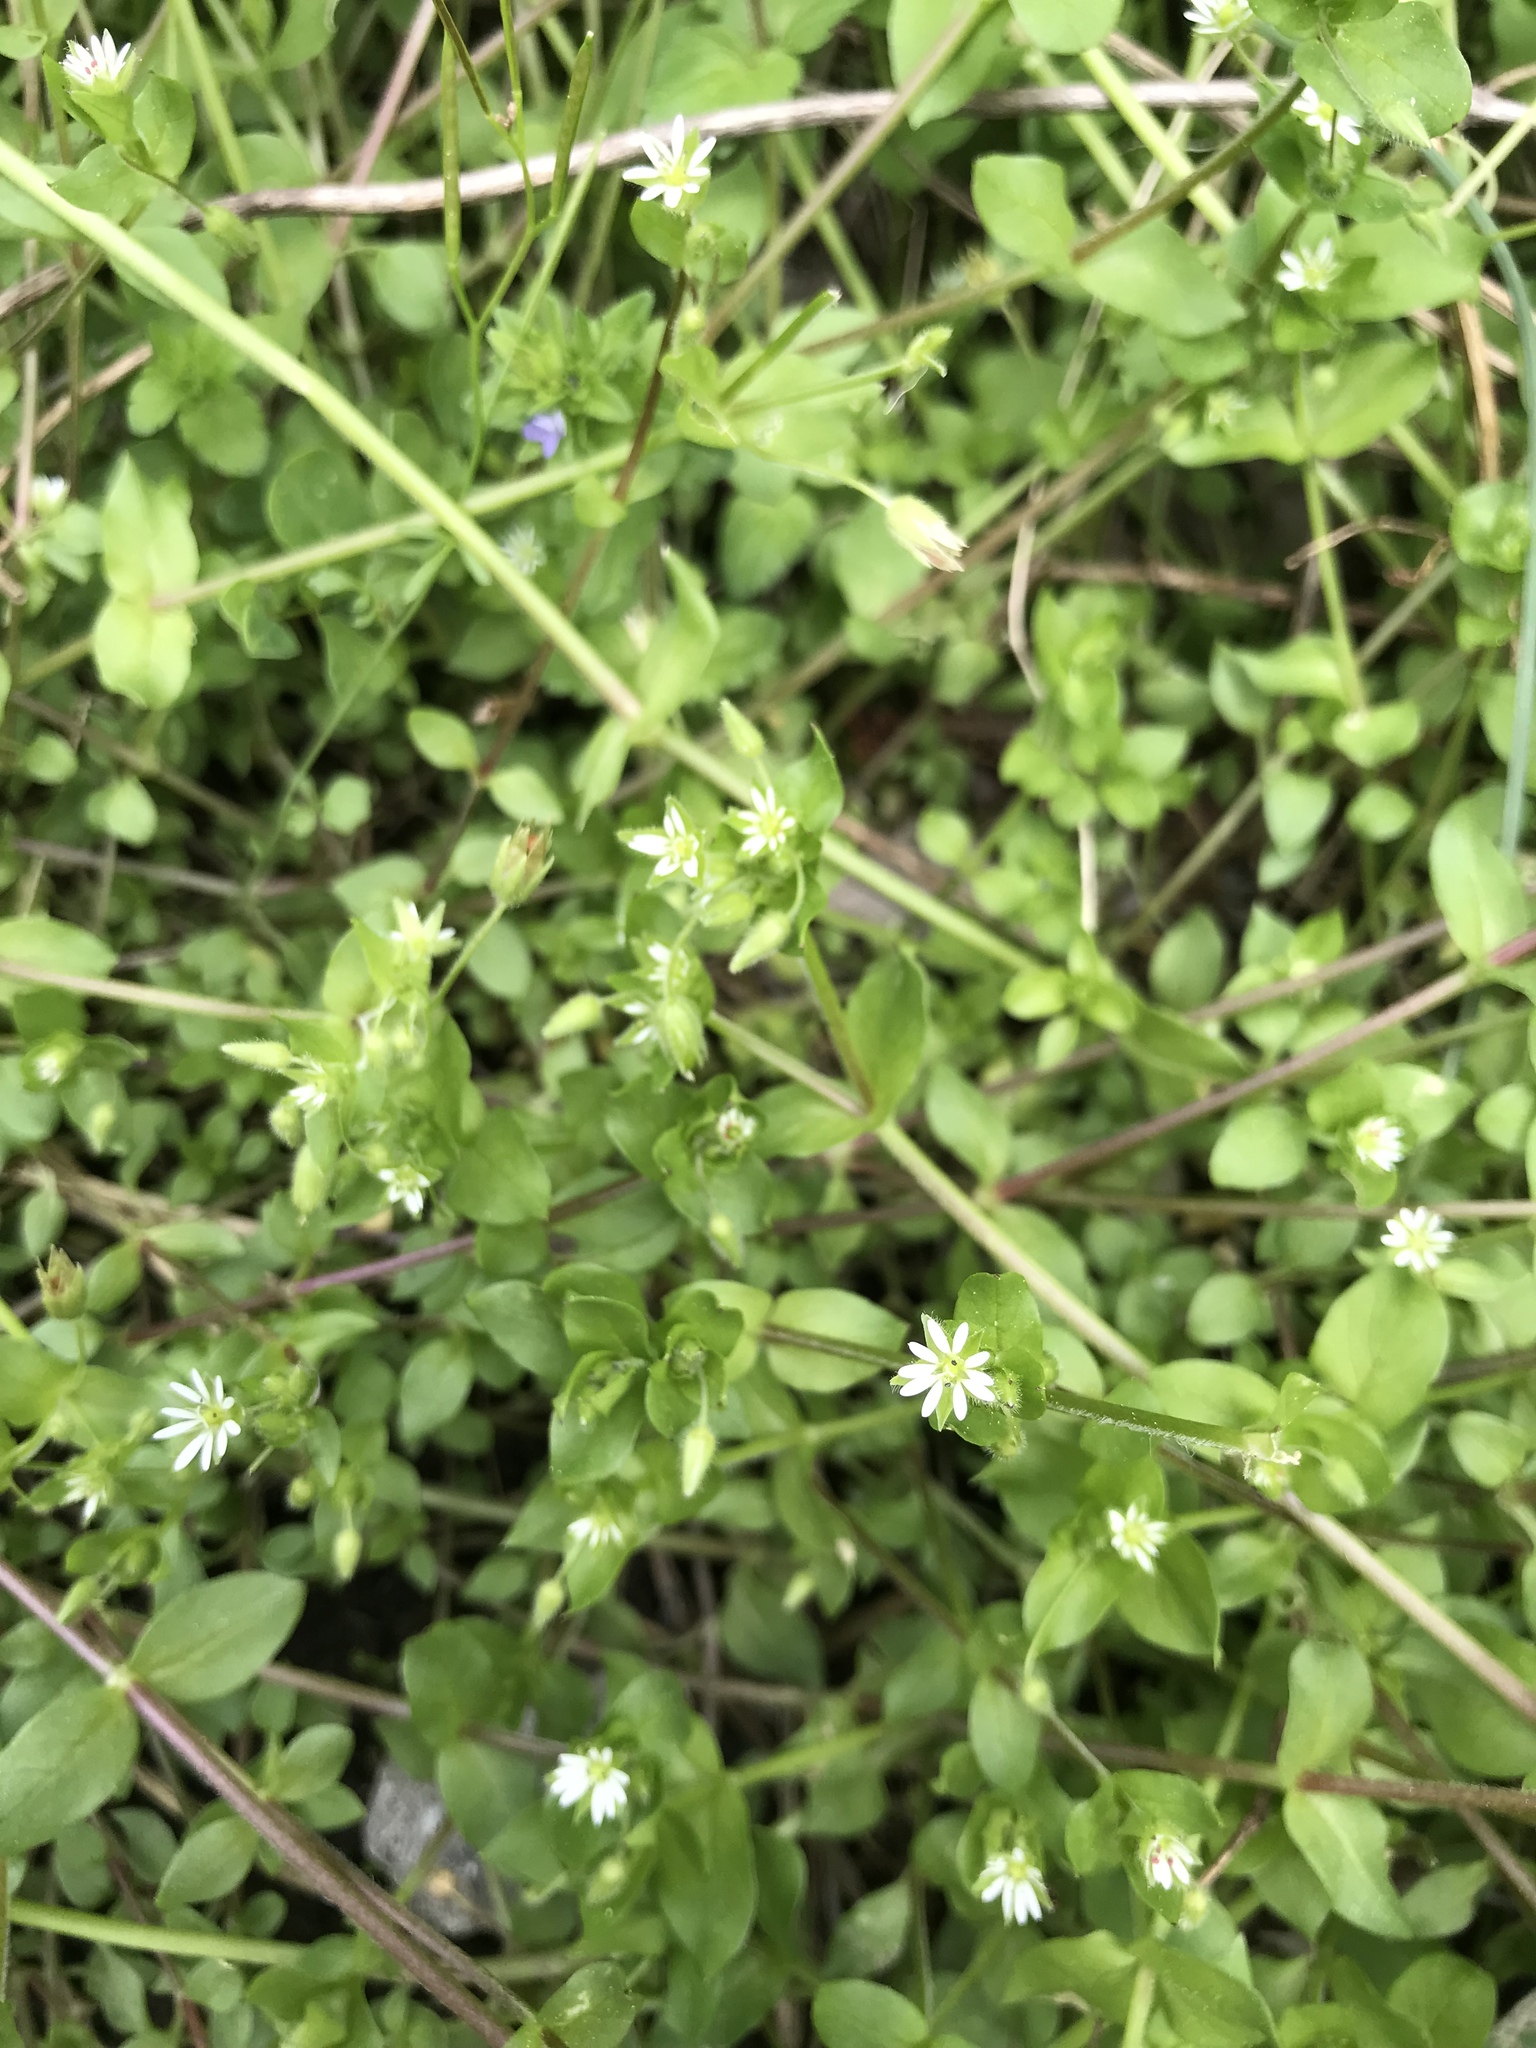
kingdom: Plantae
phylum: Tracheophyta
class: Magnoliopsida
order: Caryophyllales
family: Caryophyllaceae
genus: Stellaria
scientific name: Stellaria media
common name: Common chickweed
